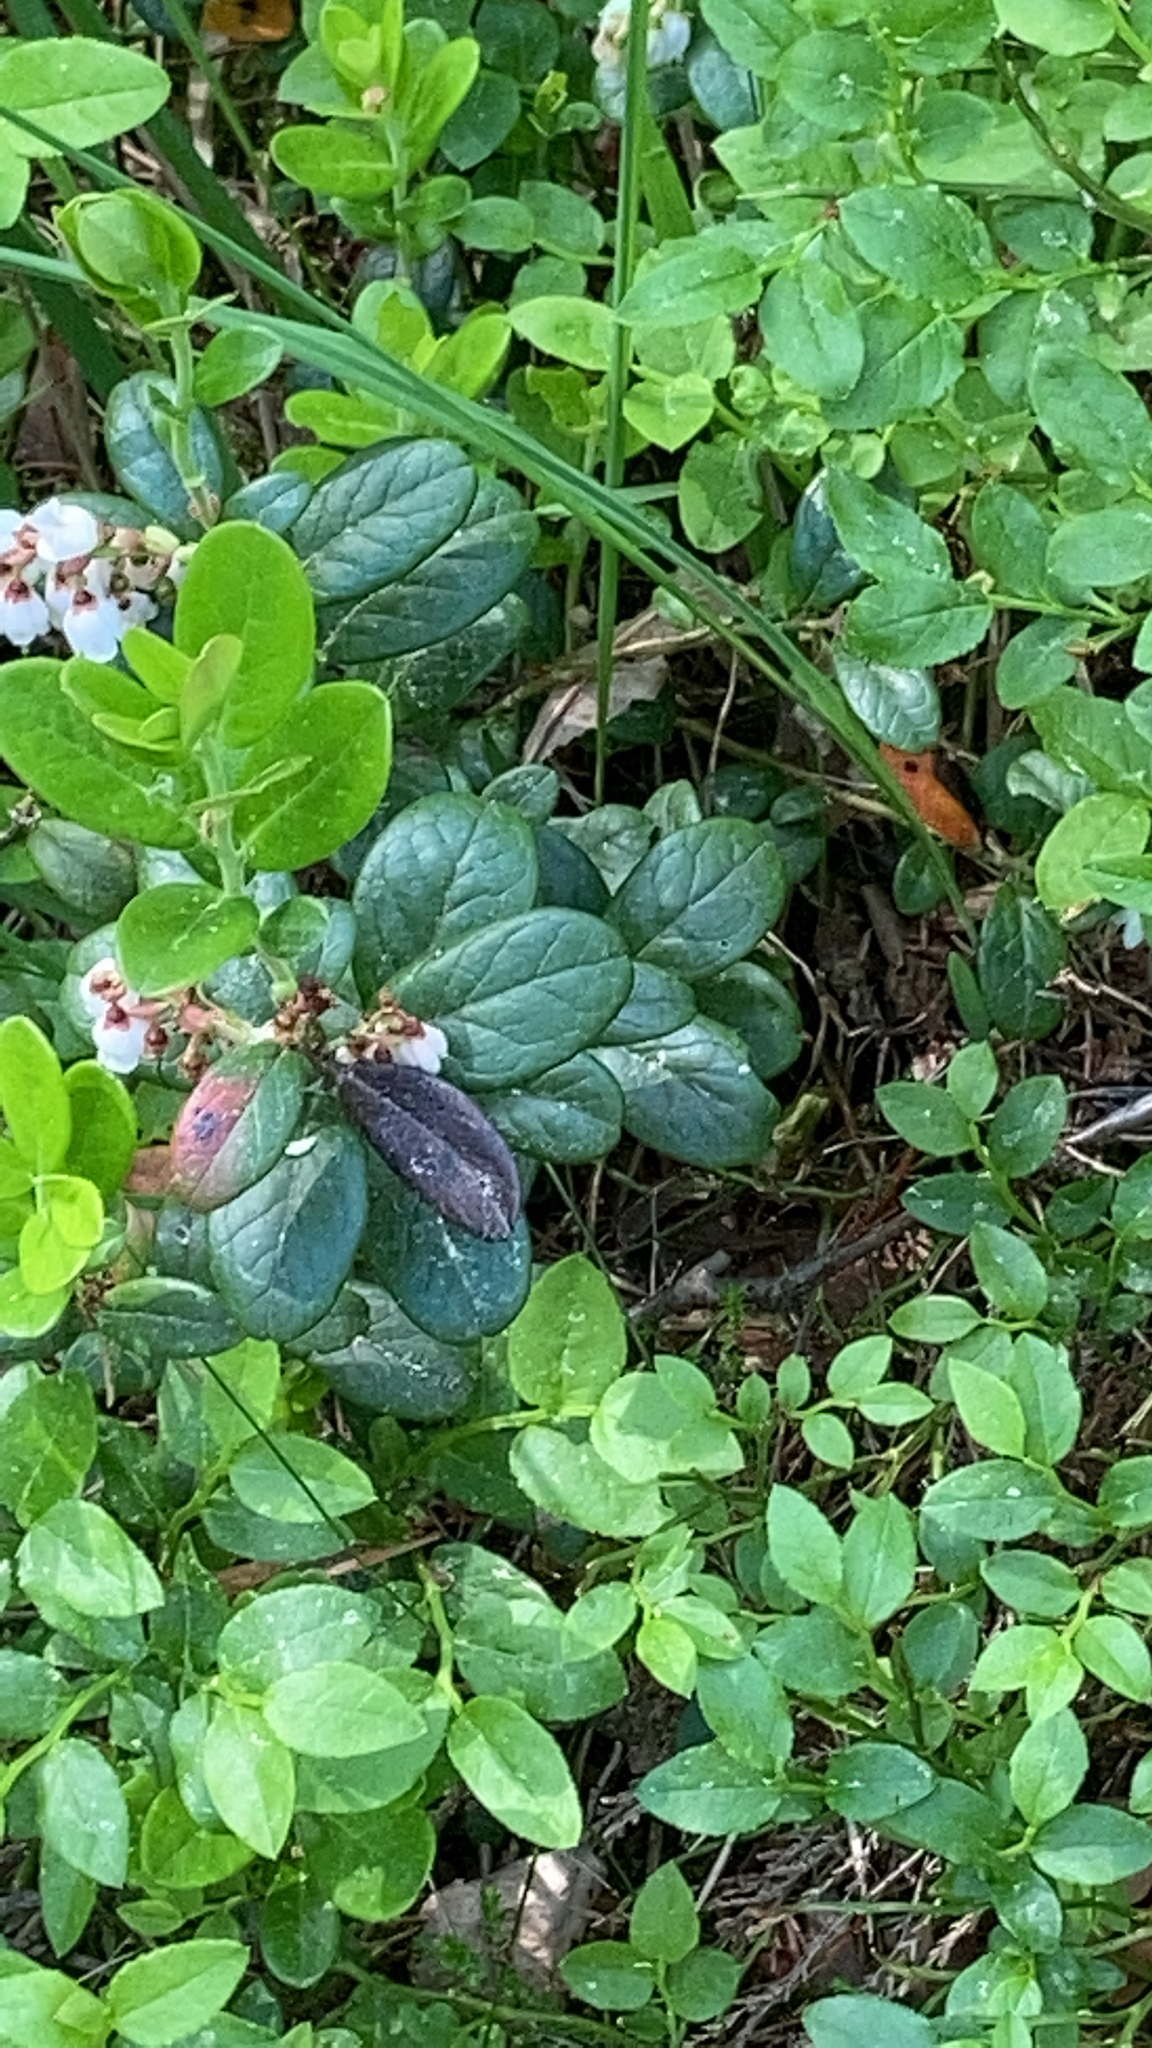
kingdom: Plantae
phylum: Tracheophyta
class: Magnoliopsida
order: Ericales
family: Ericaceae
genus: Vaccinium
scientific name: Vaccinium vitis-idaea
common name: Cowberry
